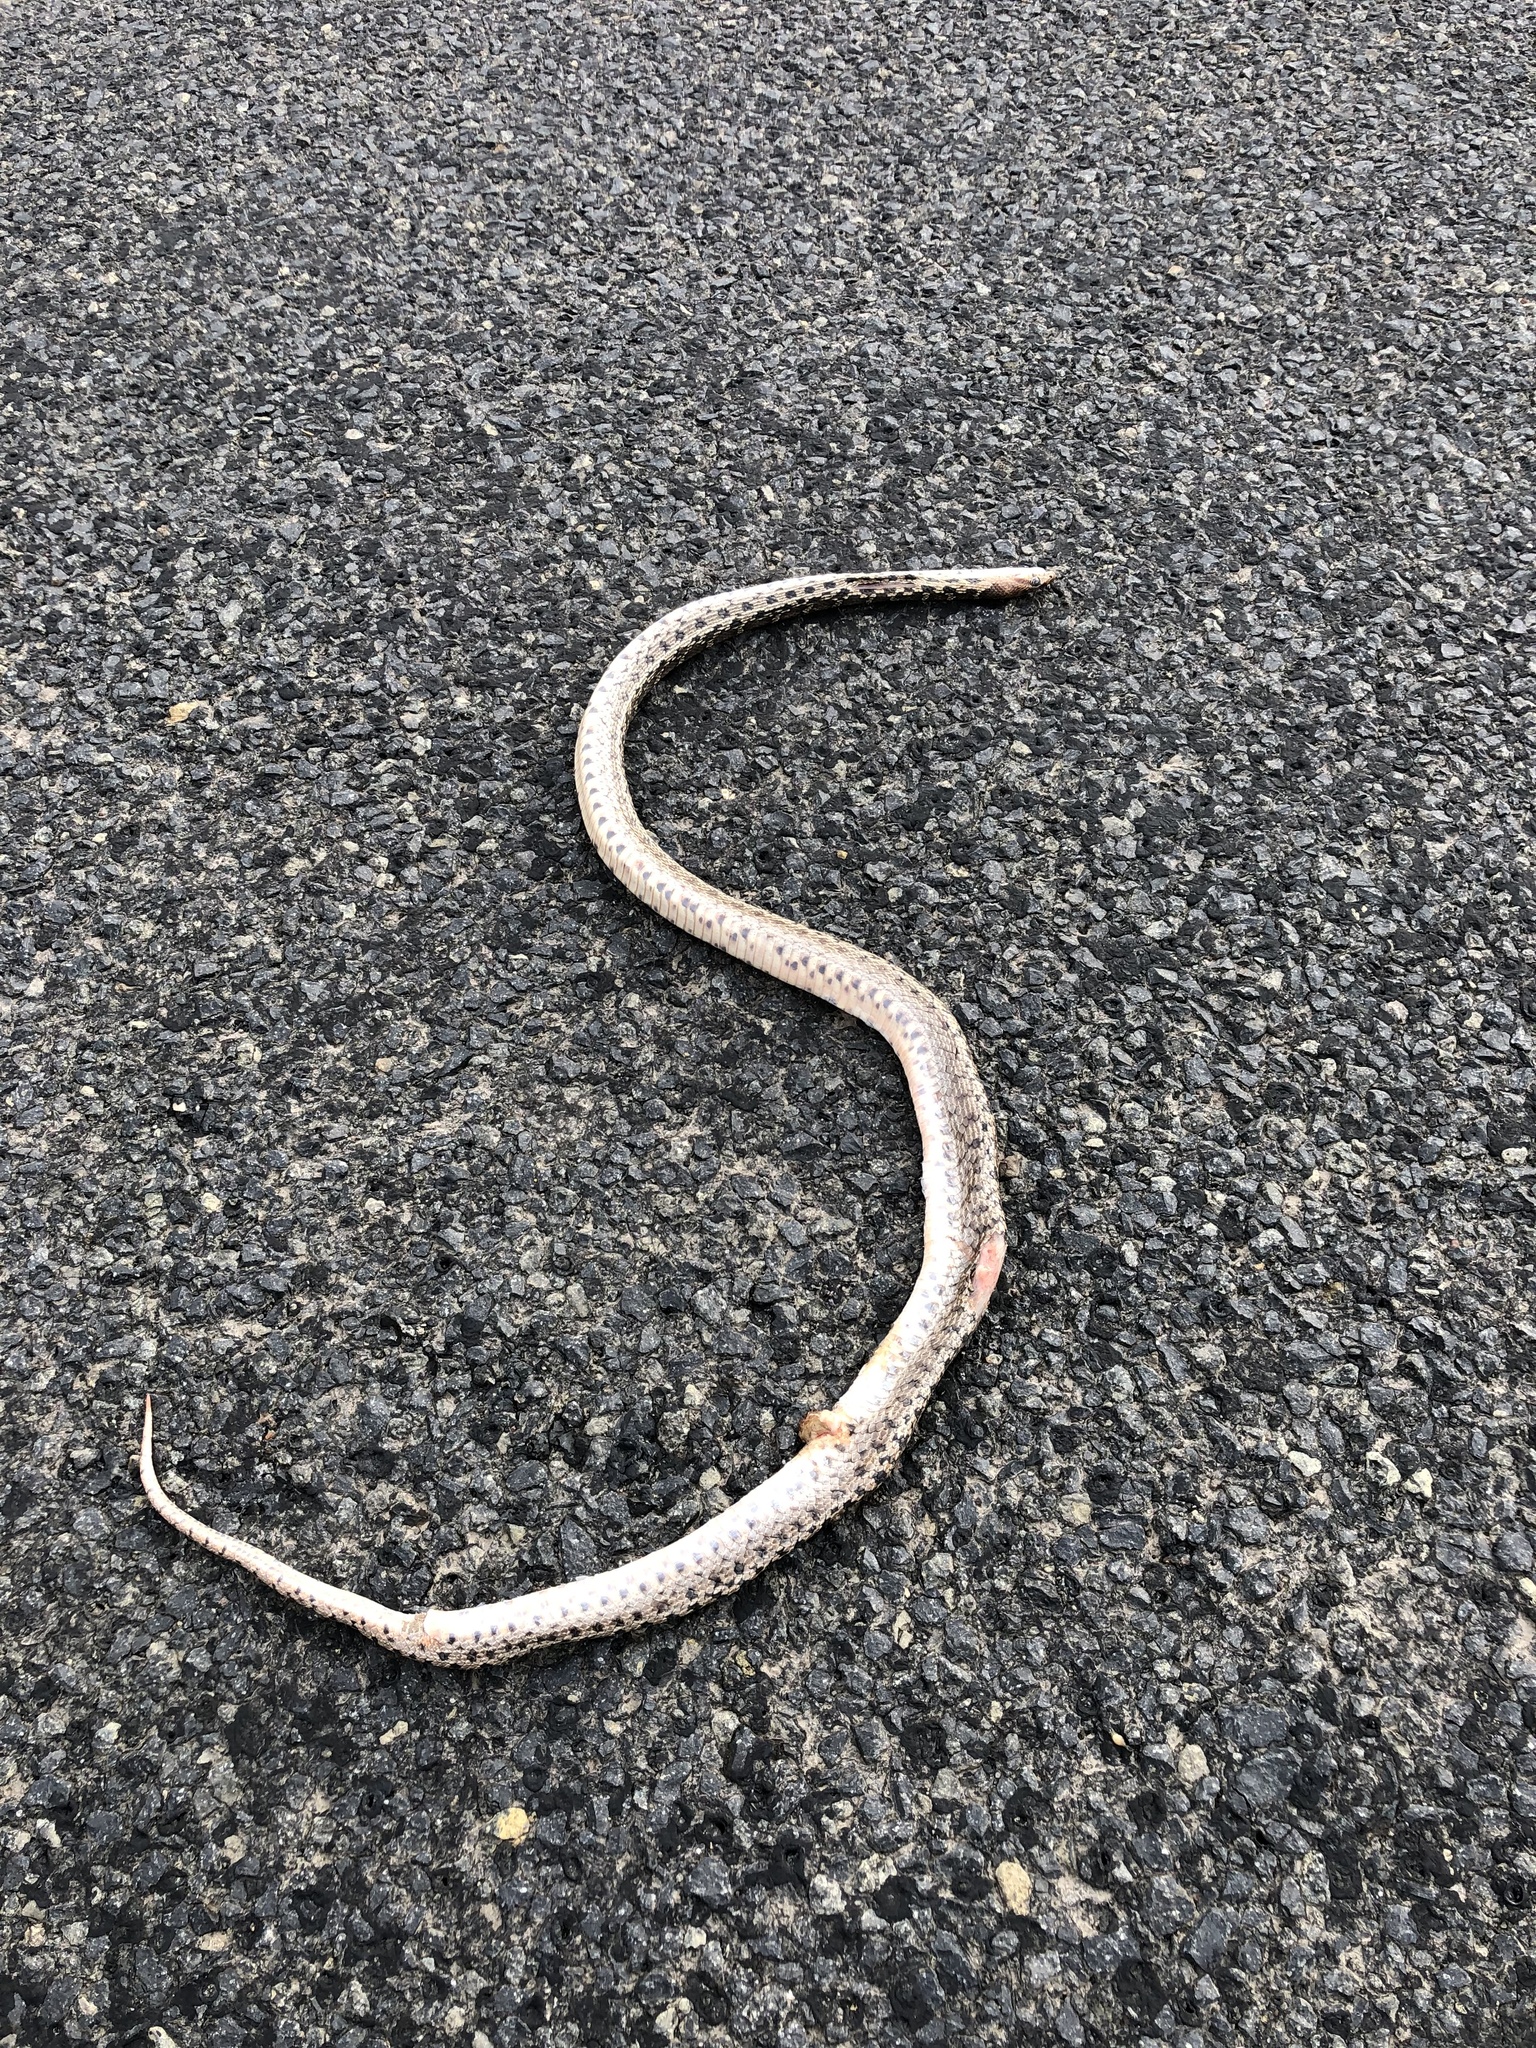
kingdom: Animalia
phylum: Chordata
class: Squamata
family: Colubridae
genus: Pituophis
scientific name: Pituophis catenifer
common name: Gopher snake
